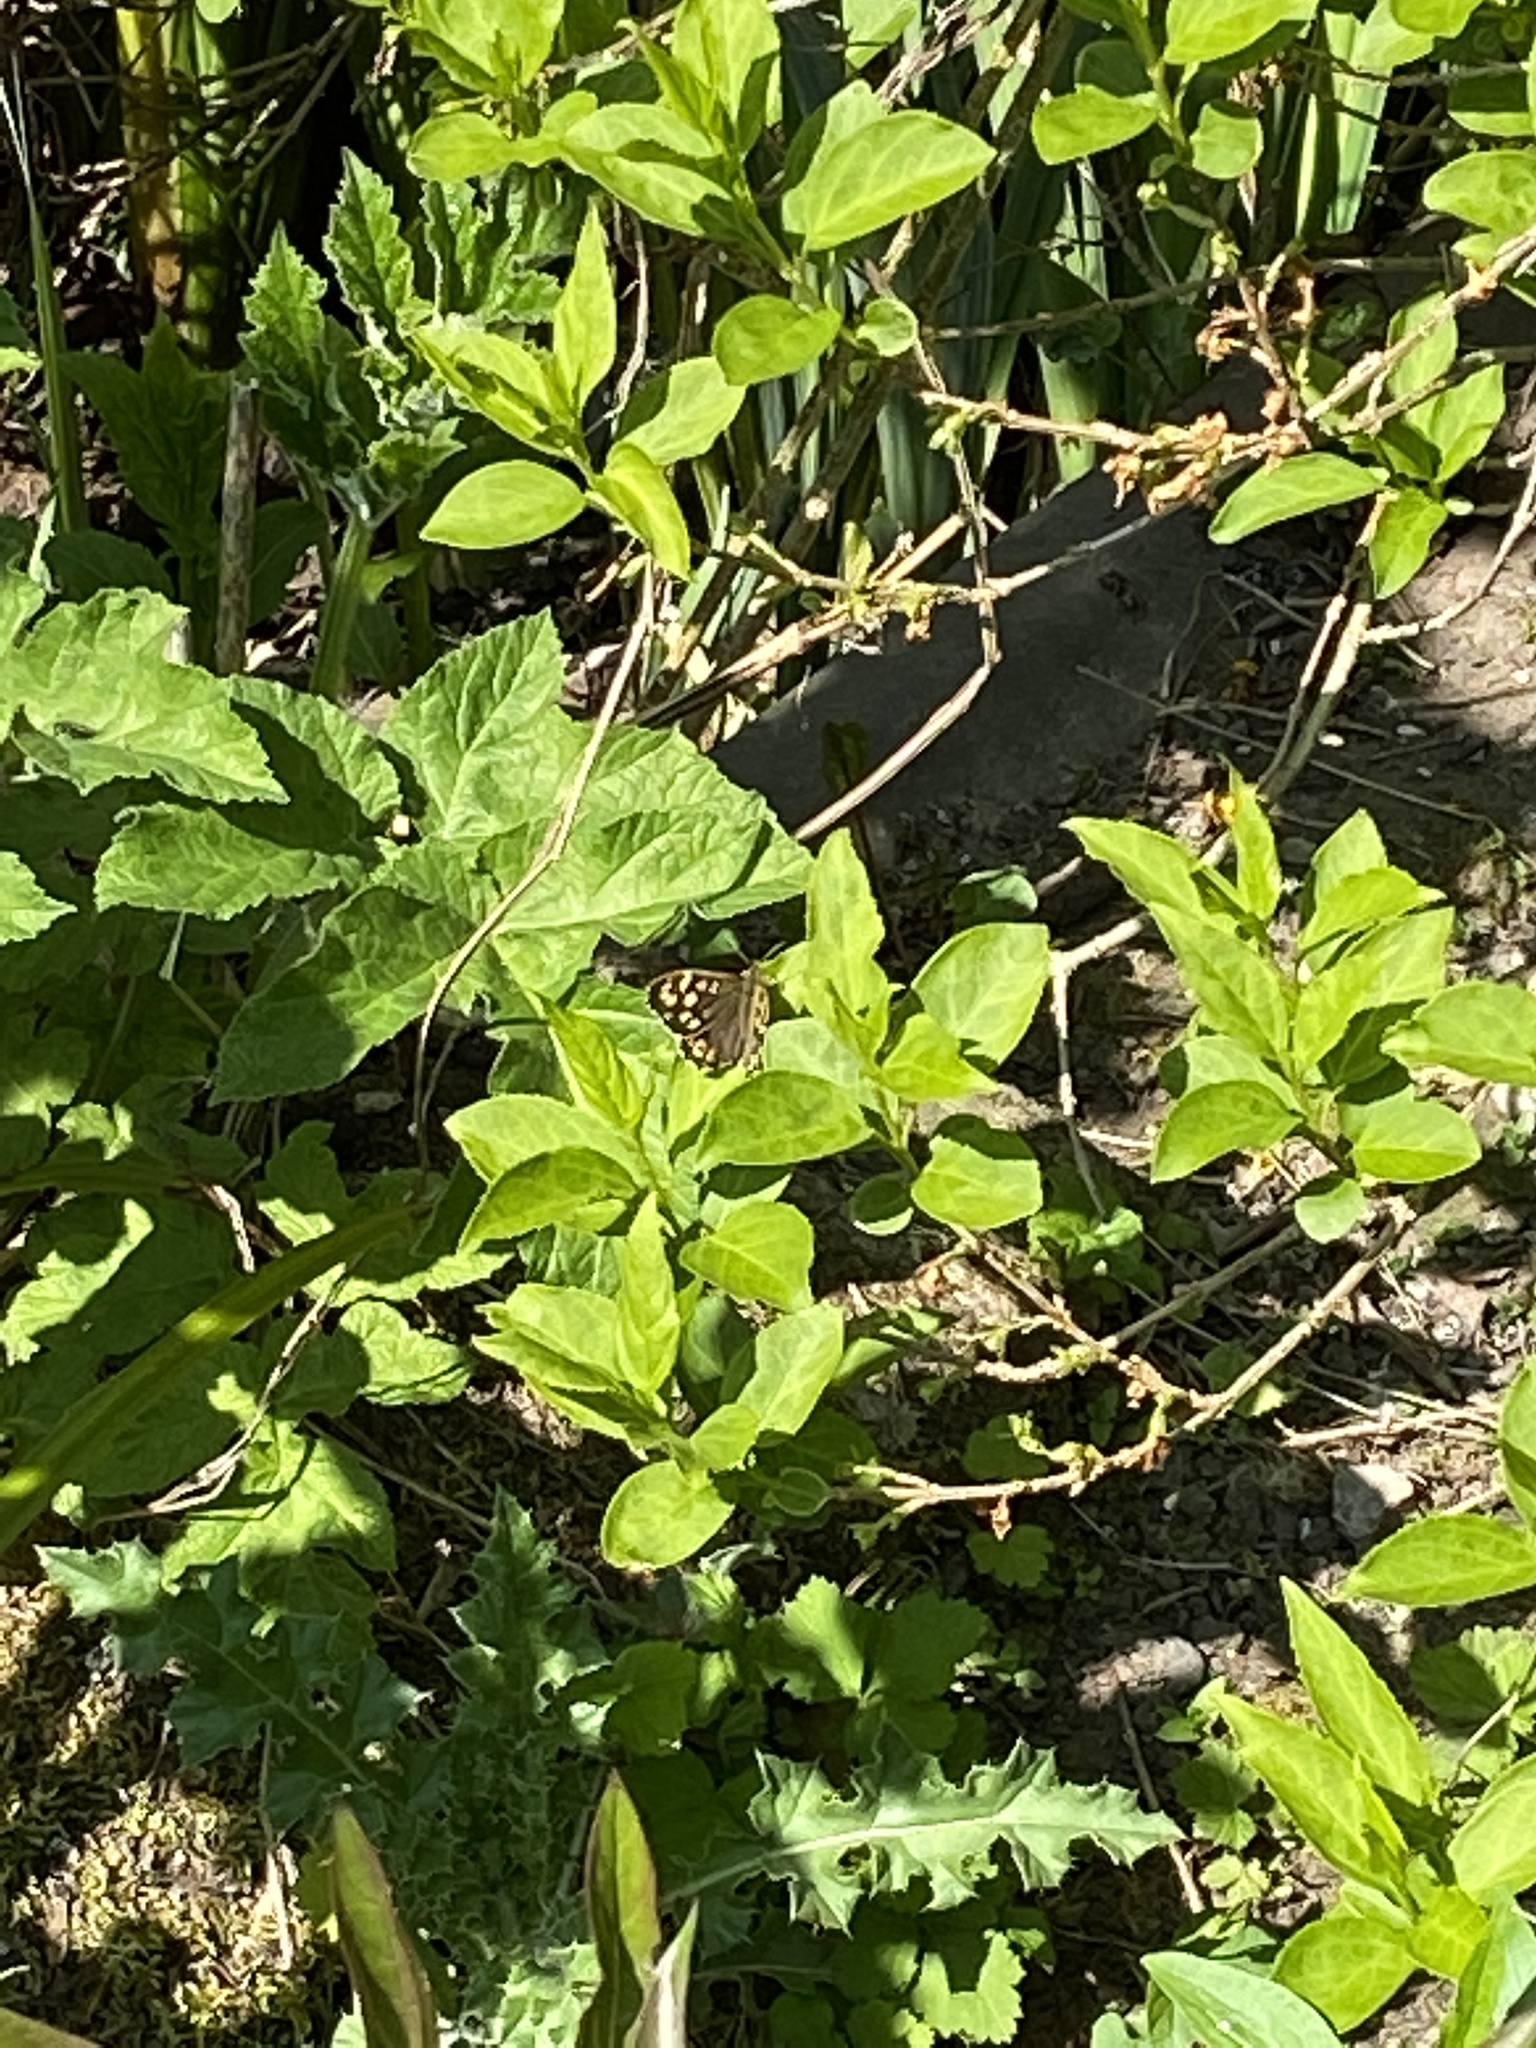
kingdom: Animalia
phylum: Arthropoda
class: Insecta
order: Lepidoptera
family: Nymphalidae
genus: Pararge
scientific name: Pararge aegeria
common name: Speckled wood
